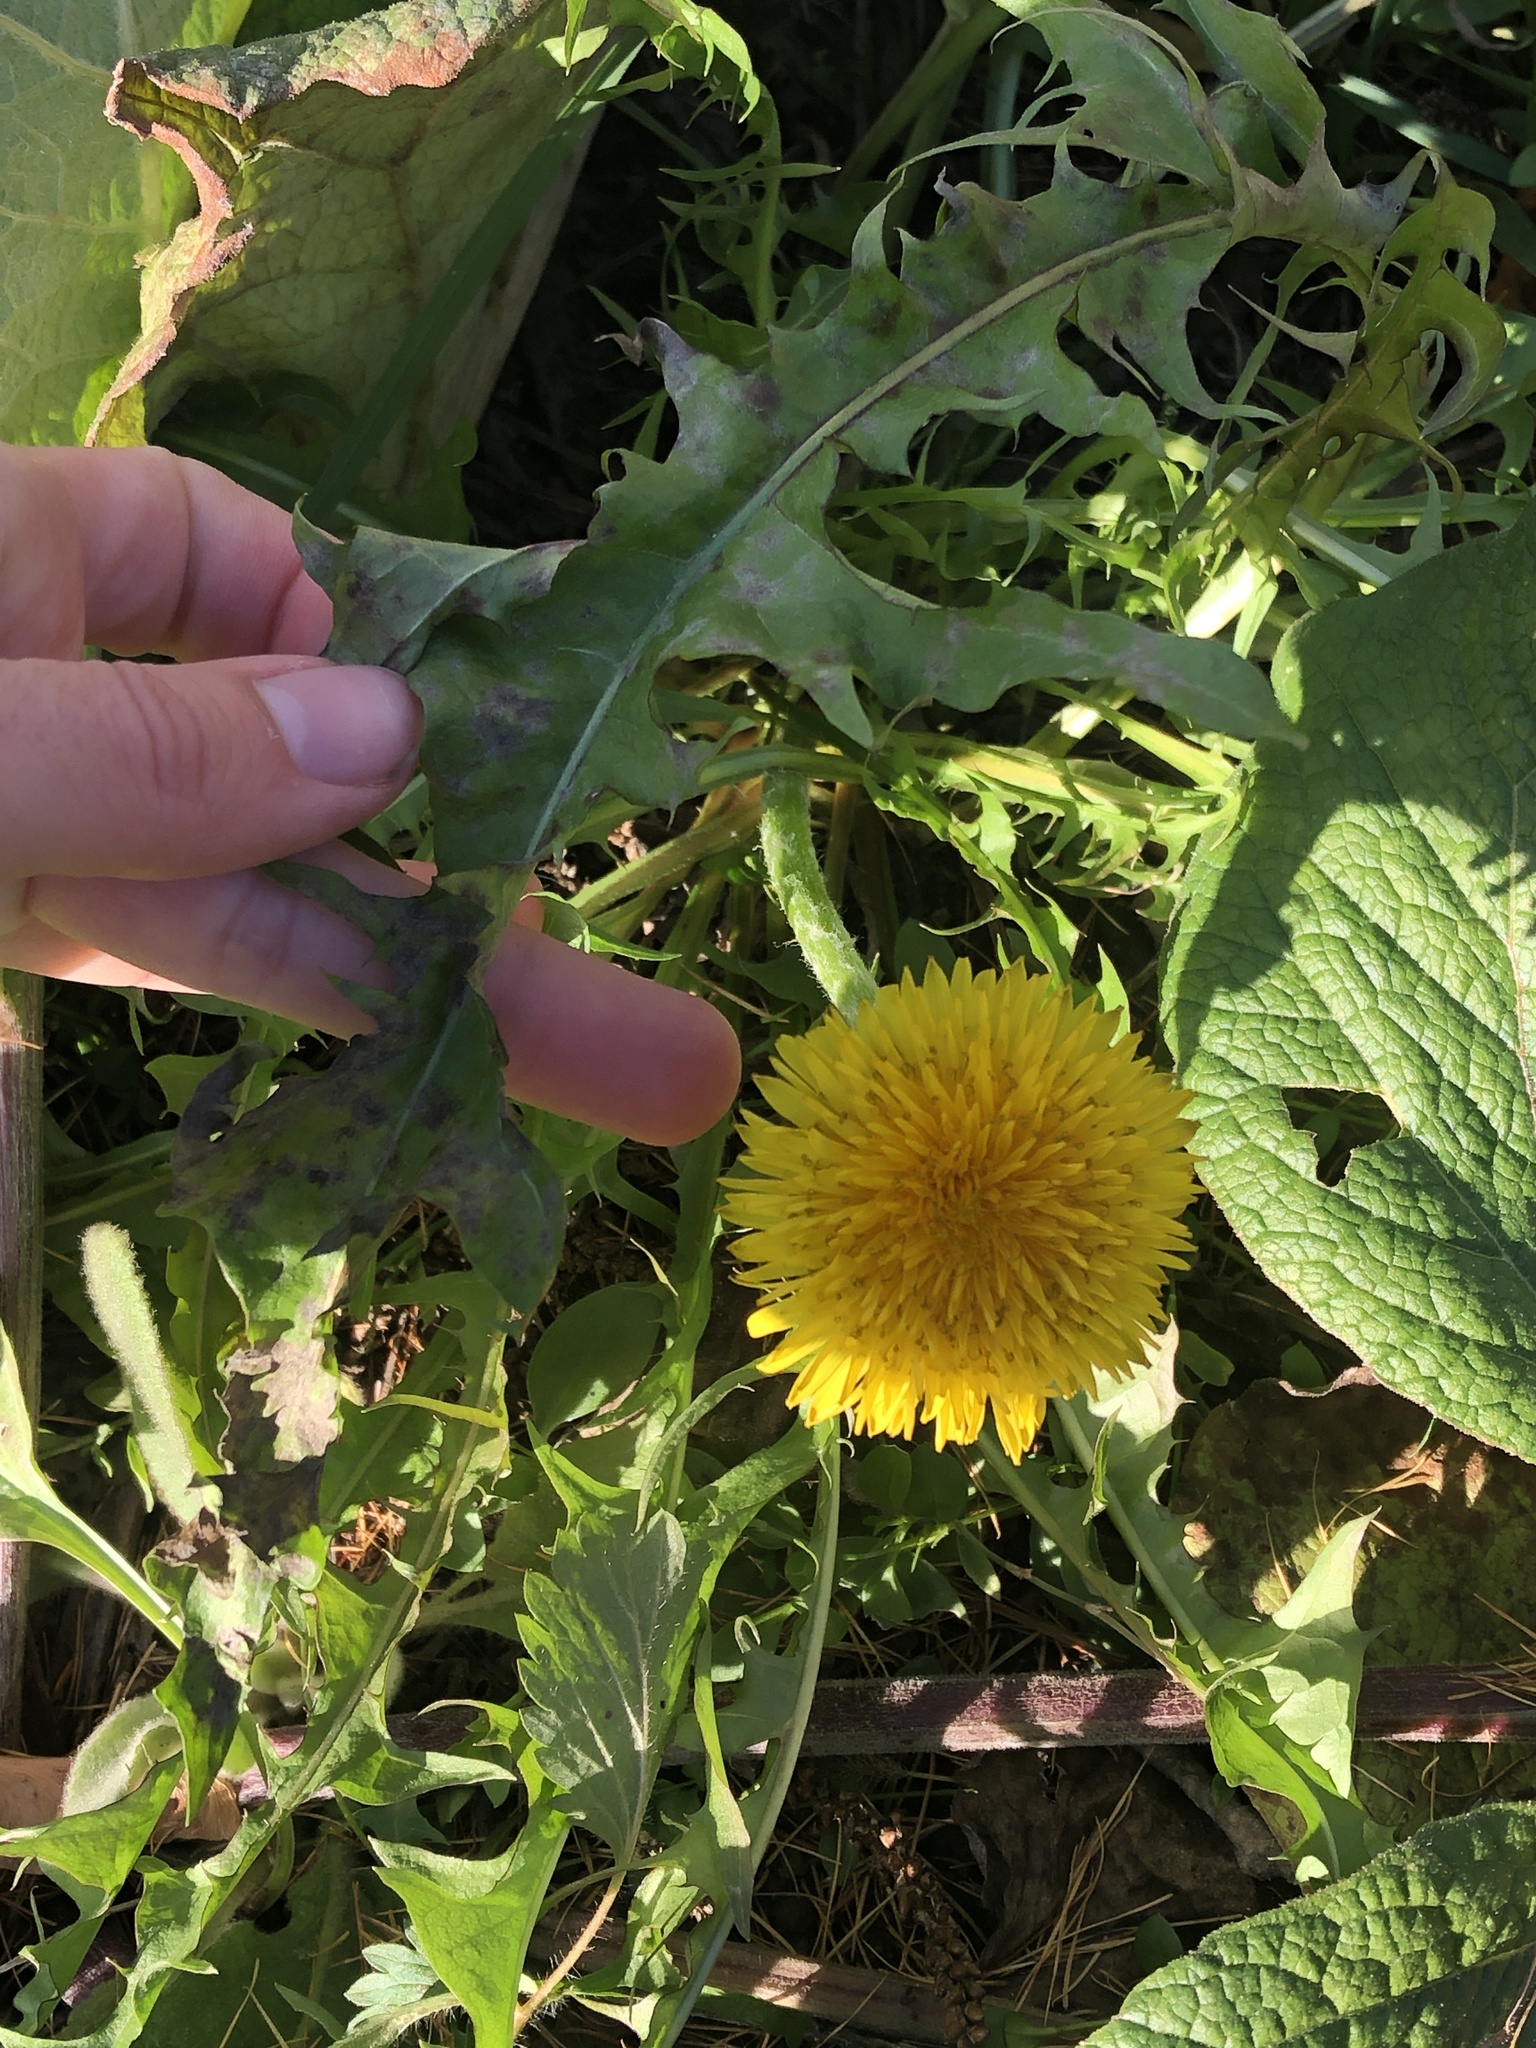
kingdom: Plantae
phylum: Tracheophyta
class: Magnoliopsida
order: Asterales
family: Asteraceae
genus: Taraxacum
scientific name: Taraxacum officinale
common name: Common dandelion
